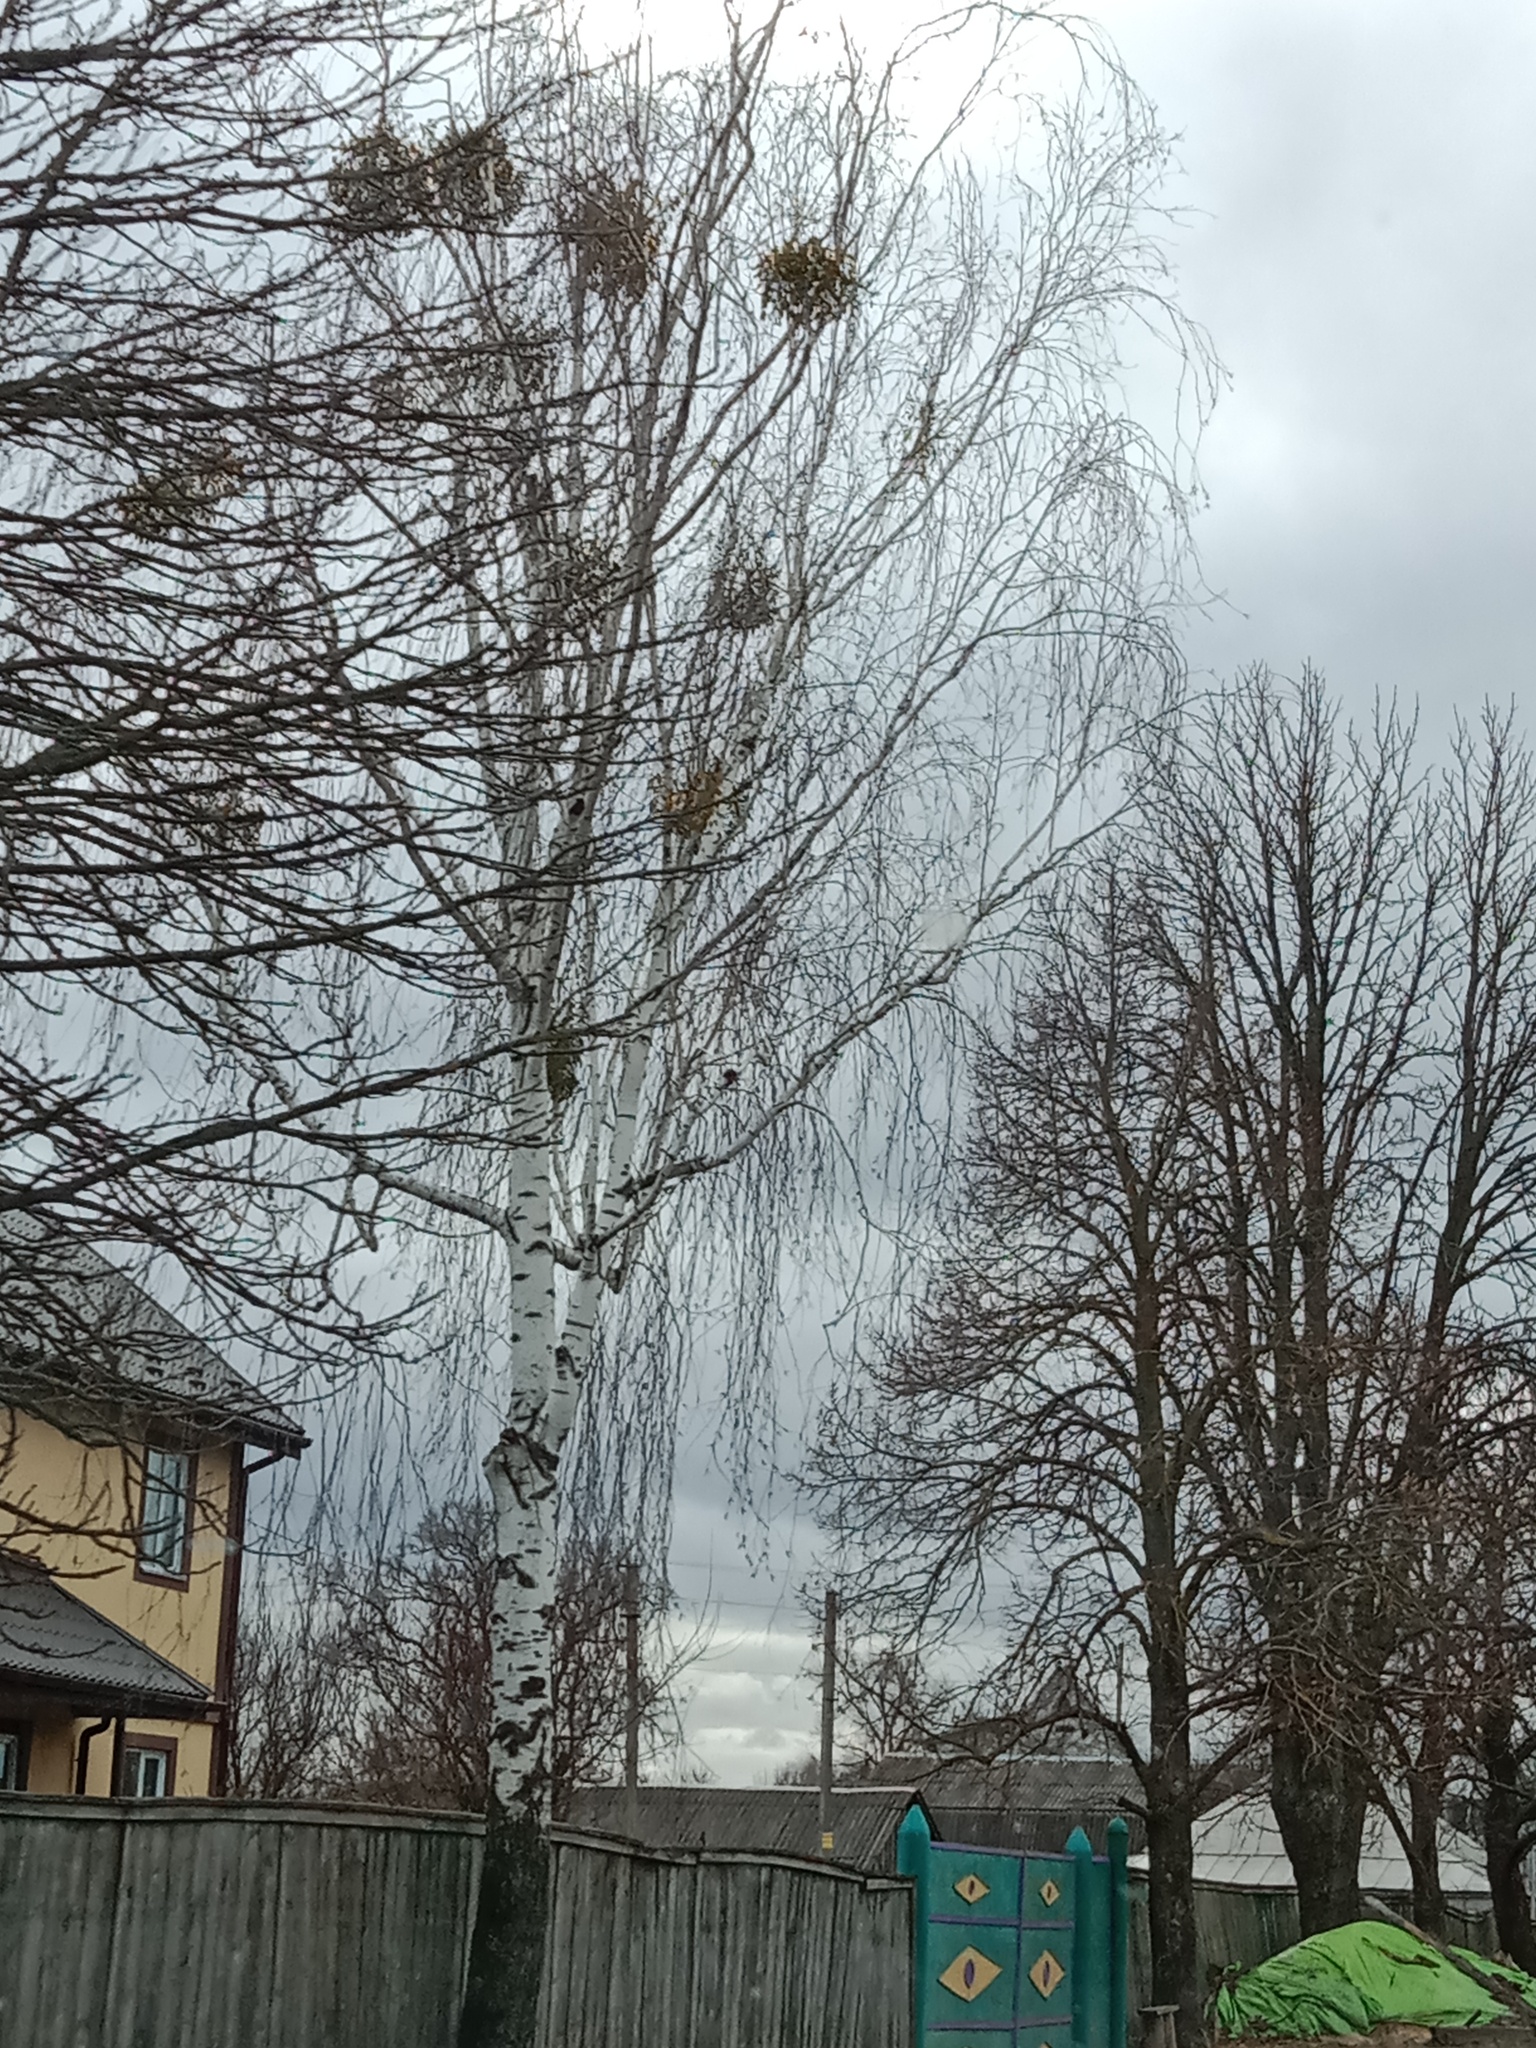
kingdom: Plantae
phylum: Tracheophyta
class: Magnoliopsida
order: Santalales
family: Viscaceae
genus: Viscum
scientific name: Viscum album
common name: Mistletoe
